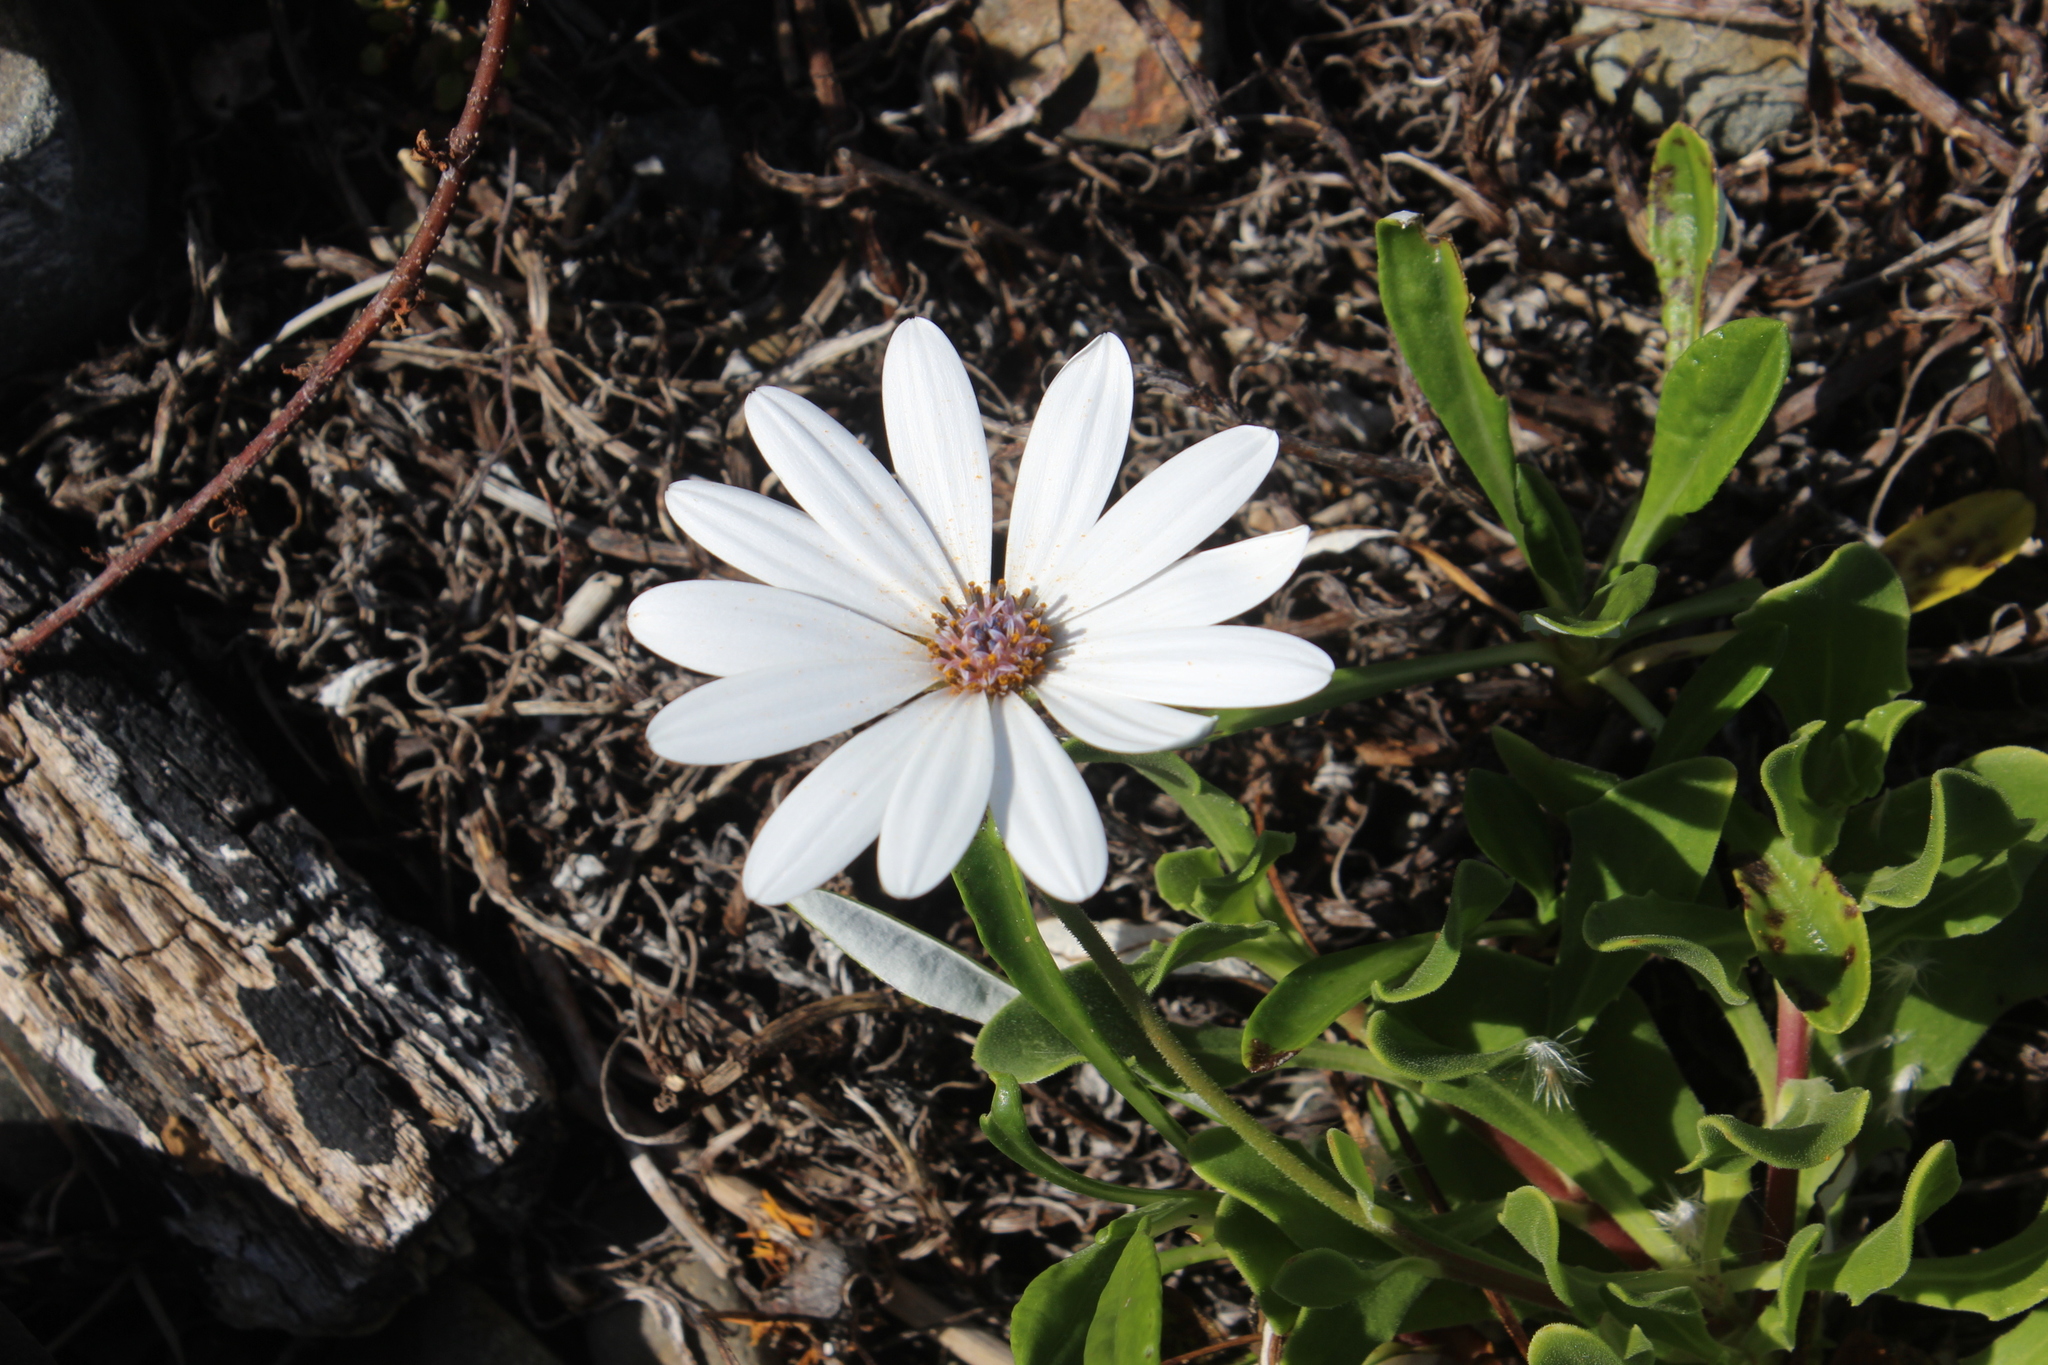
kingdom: Plantae
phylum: Tracheophyta
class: Magnoliopsida
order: Asterales
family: Asteraceae
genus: Dimorphotheca
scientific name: Dimorphotheca fruticosa
